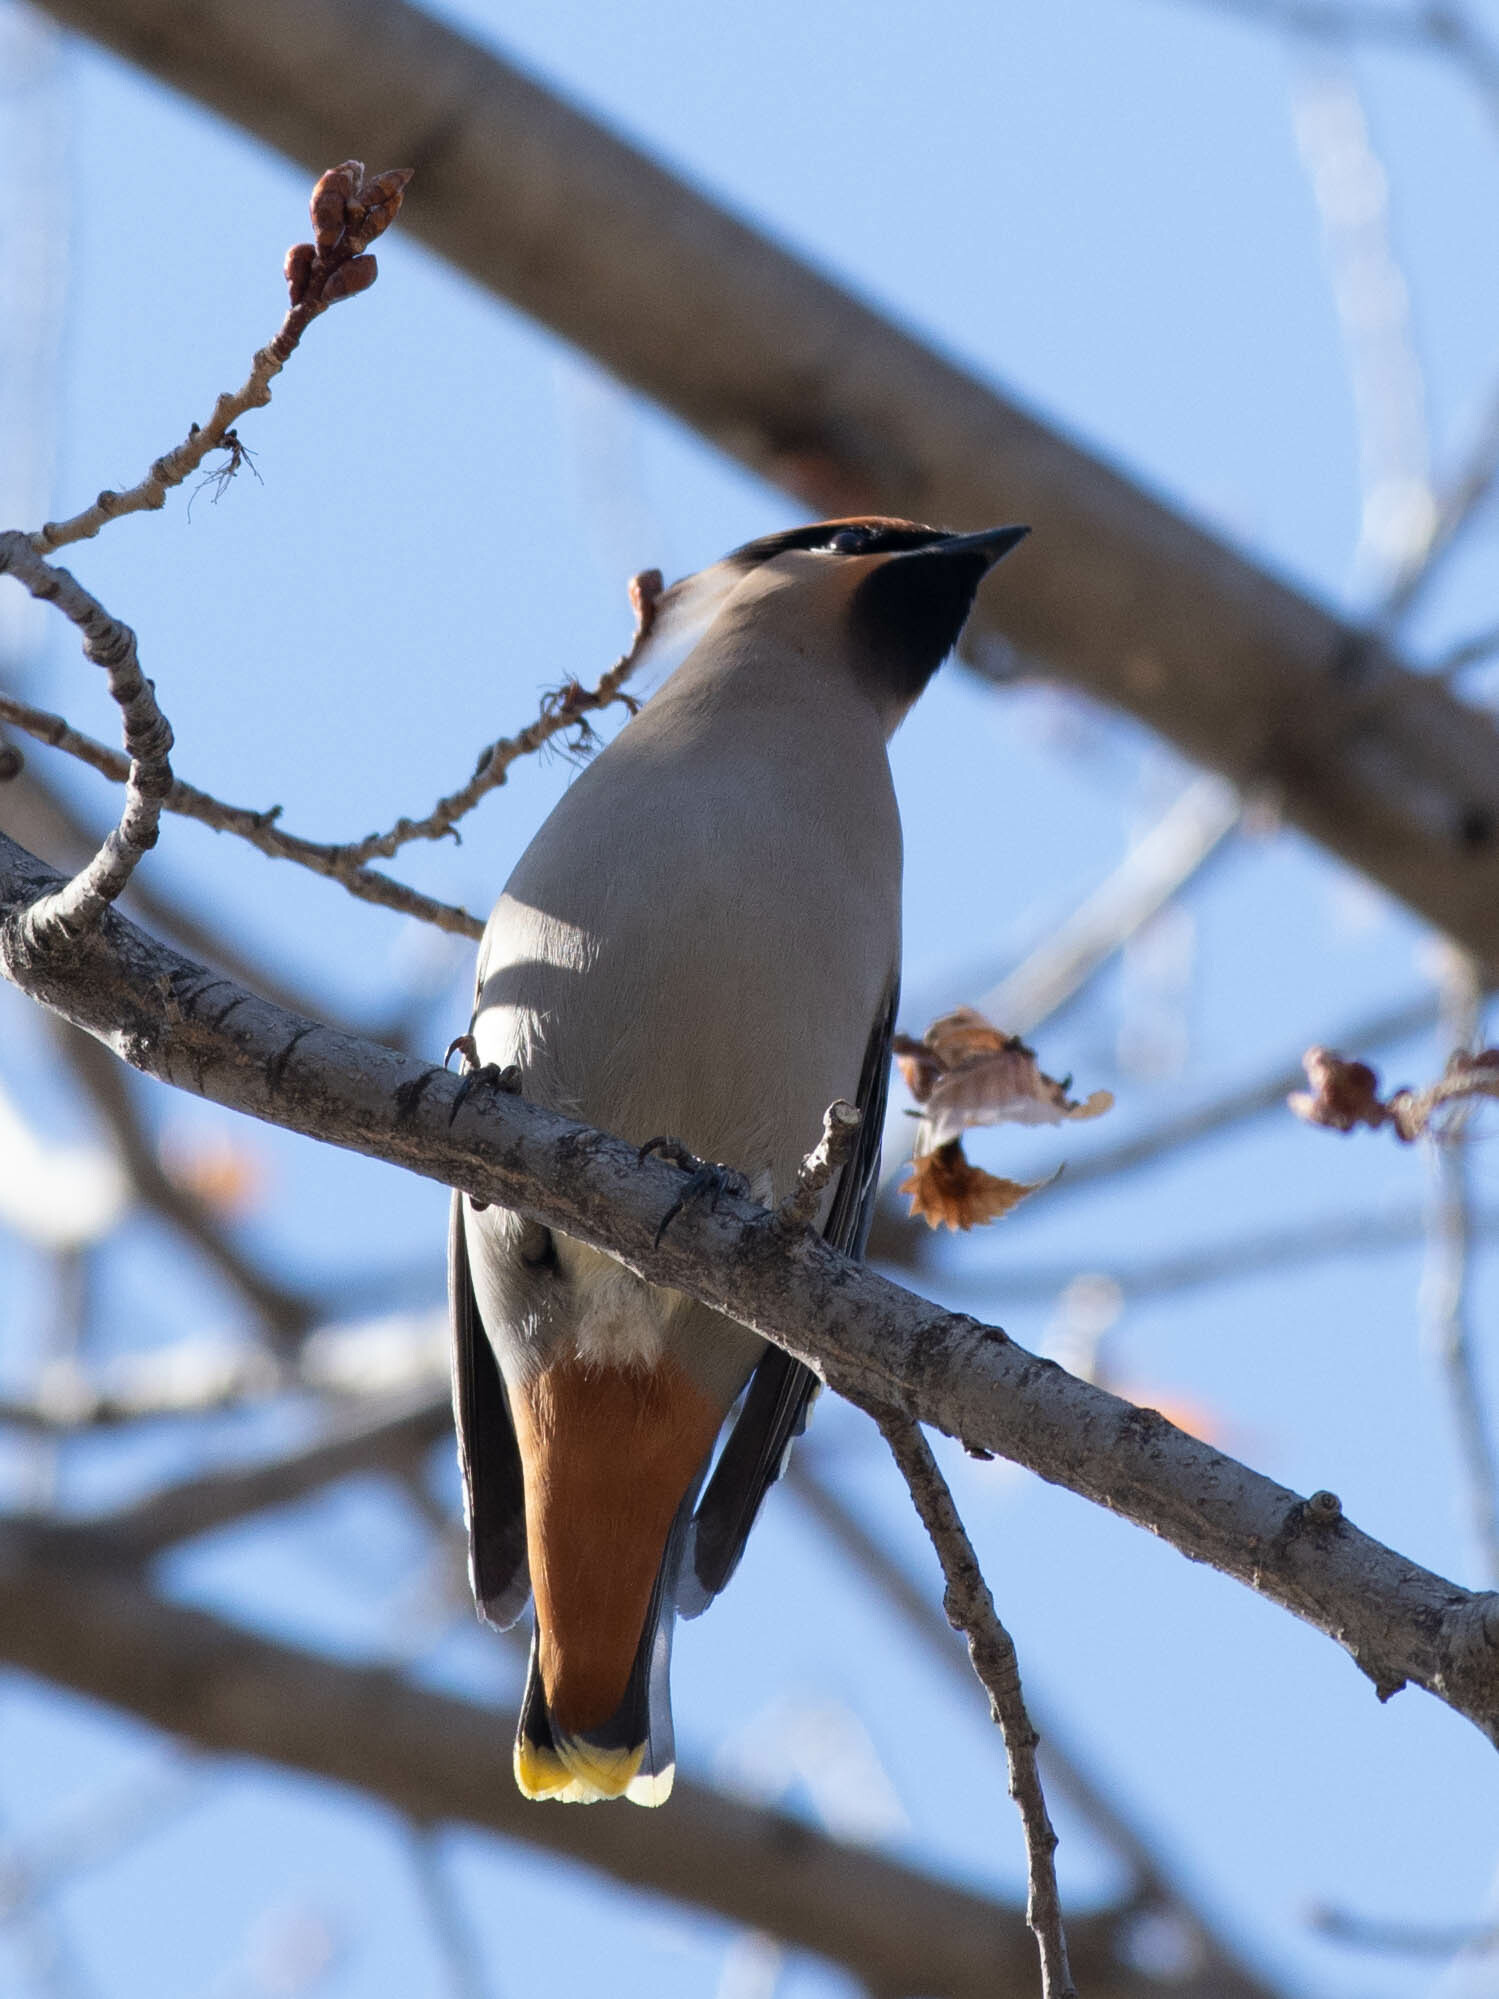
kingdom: Animalia
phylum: Chordata
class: Aves
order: Passeriformes
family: Bombycillidae
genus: Bombycilla
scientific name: Bombycilla garrulus
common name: Bohemian waxwing
